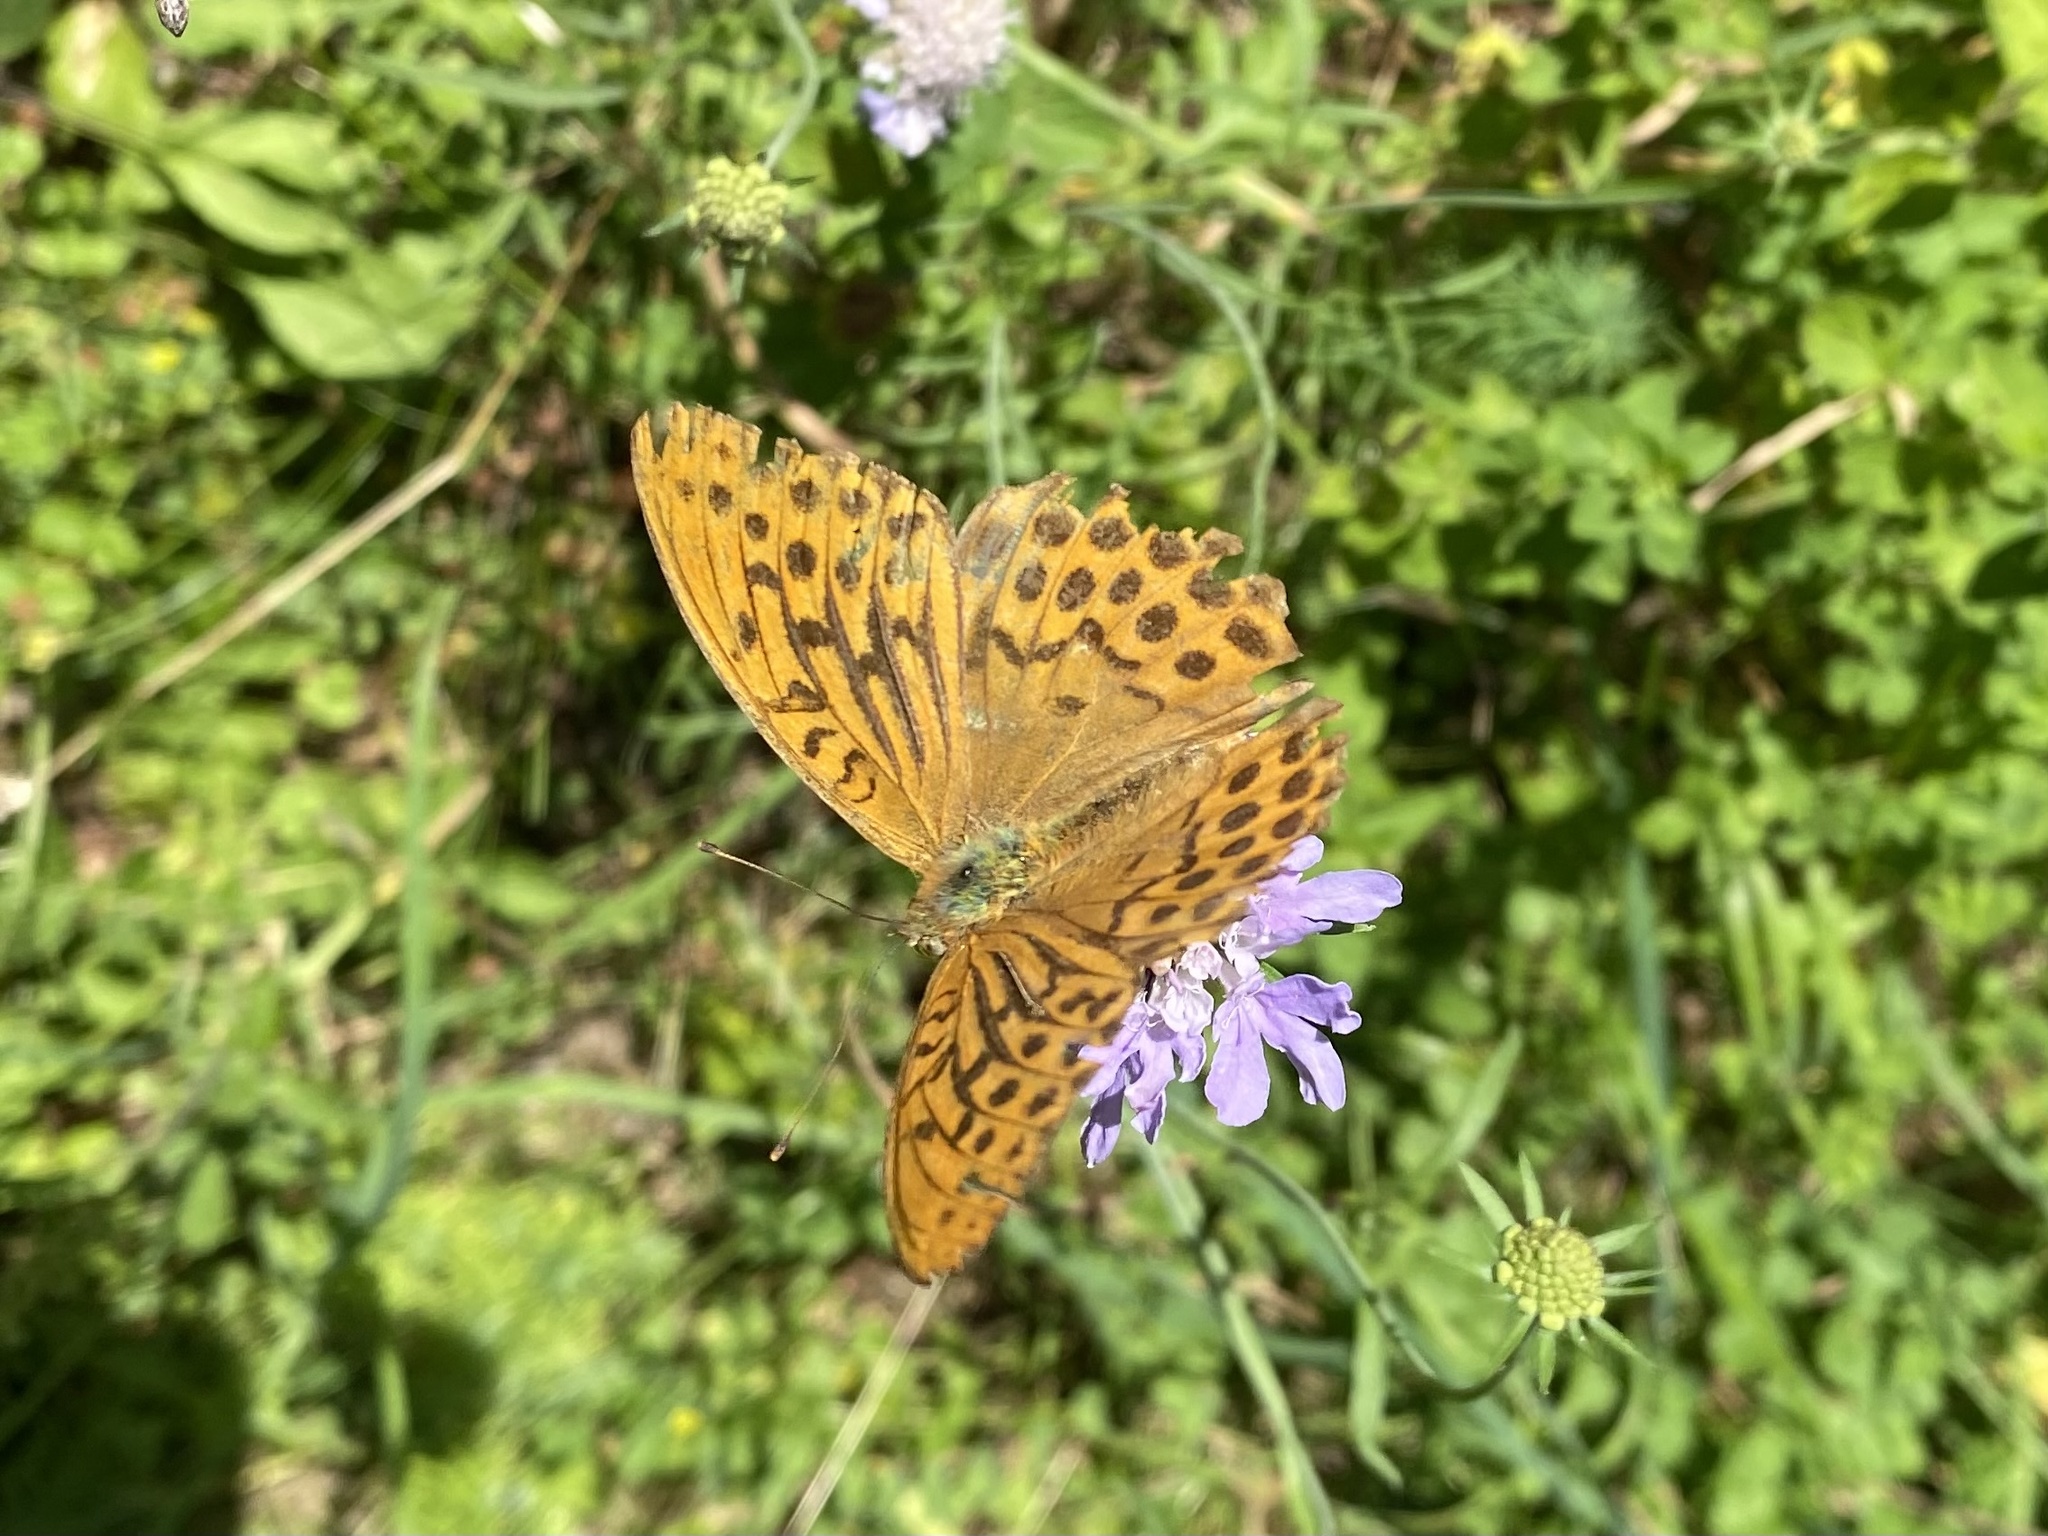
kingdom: Animalia
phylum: Arthropoda
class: Insecta
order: Lepidoptera
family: Nymphalidae
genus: Argynnis
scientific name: Argynnis paphia
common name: Silver-washed fritillary
